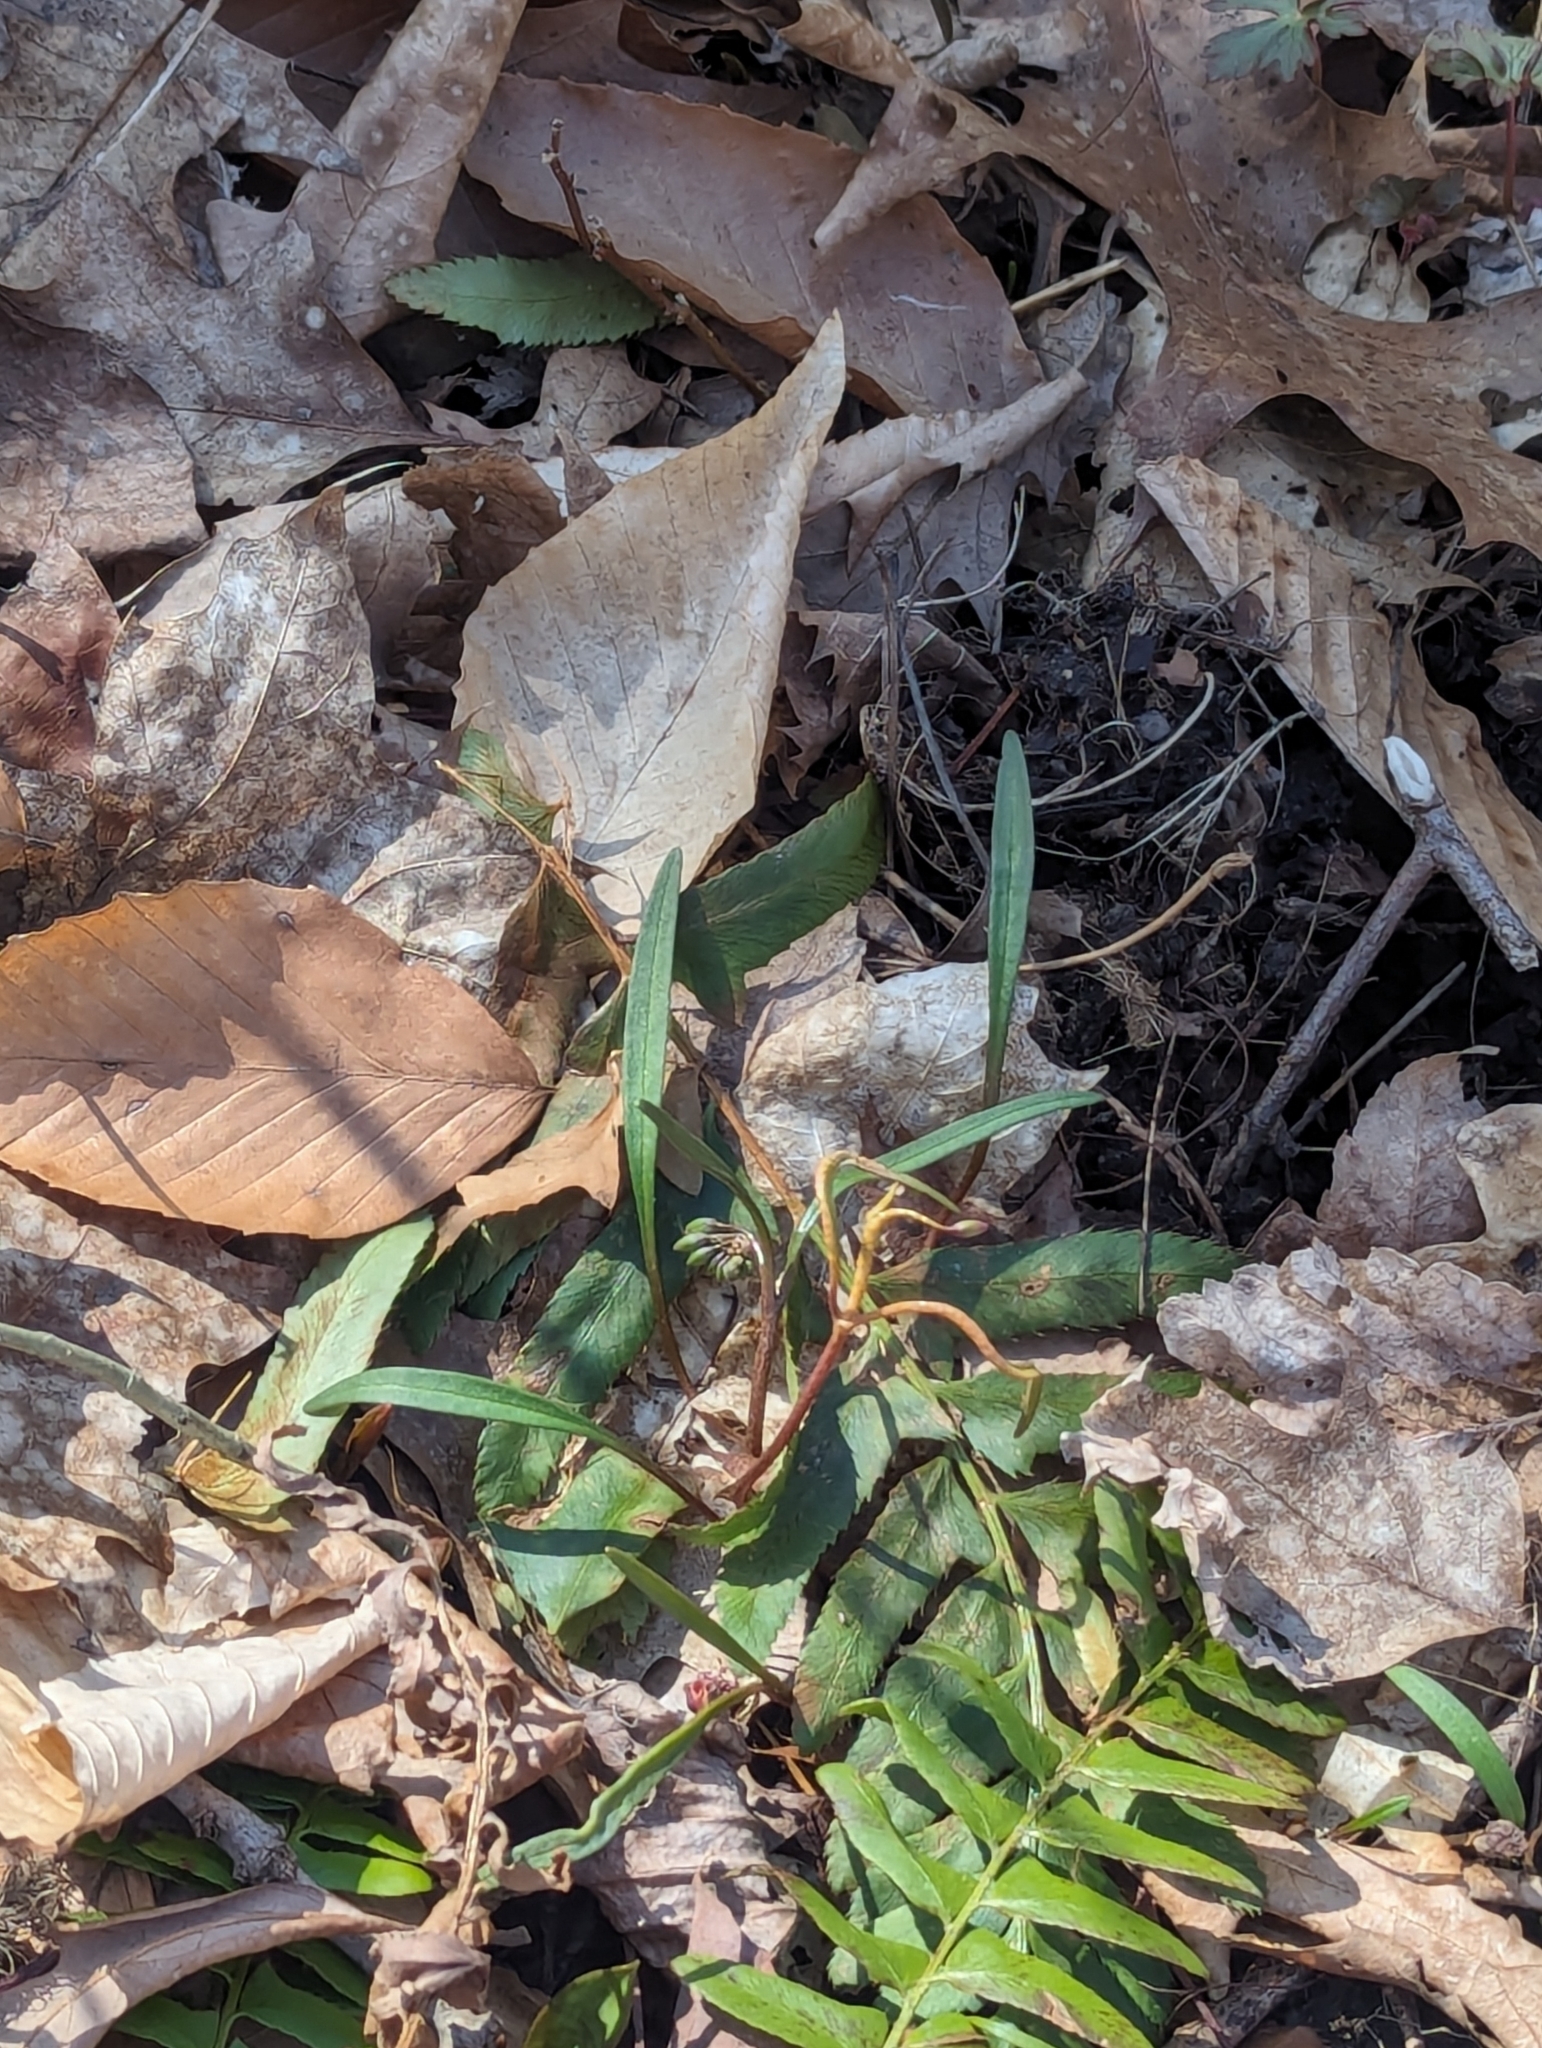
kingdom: Plantae
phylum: Tracheophyta
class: Magnoliopsida
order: Caryophyllales
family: Montiaceae
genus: Claytonia
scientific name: Claytonia virginica
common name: Virginia springbeauty
